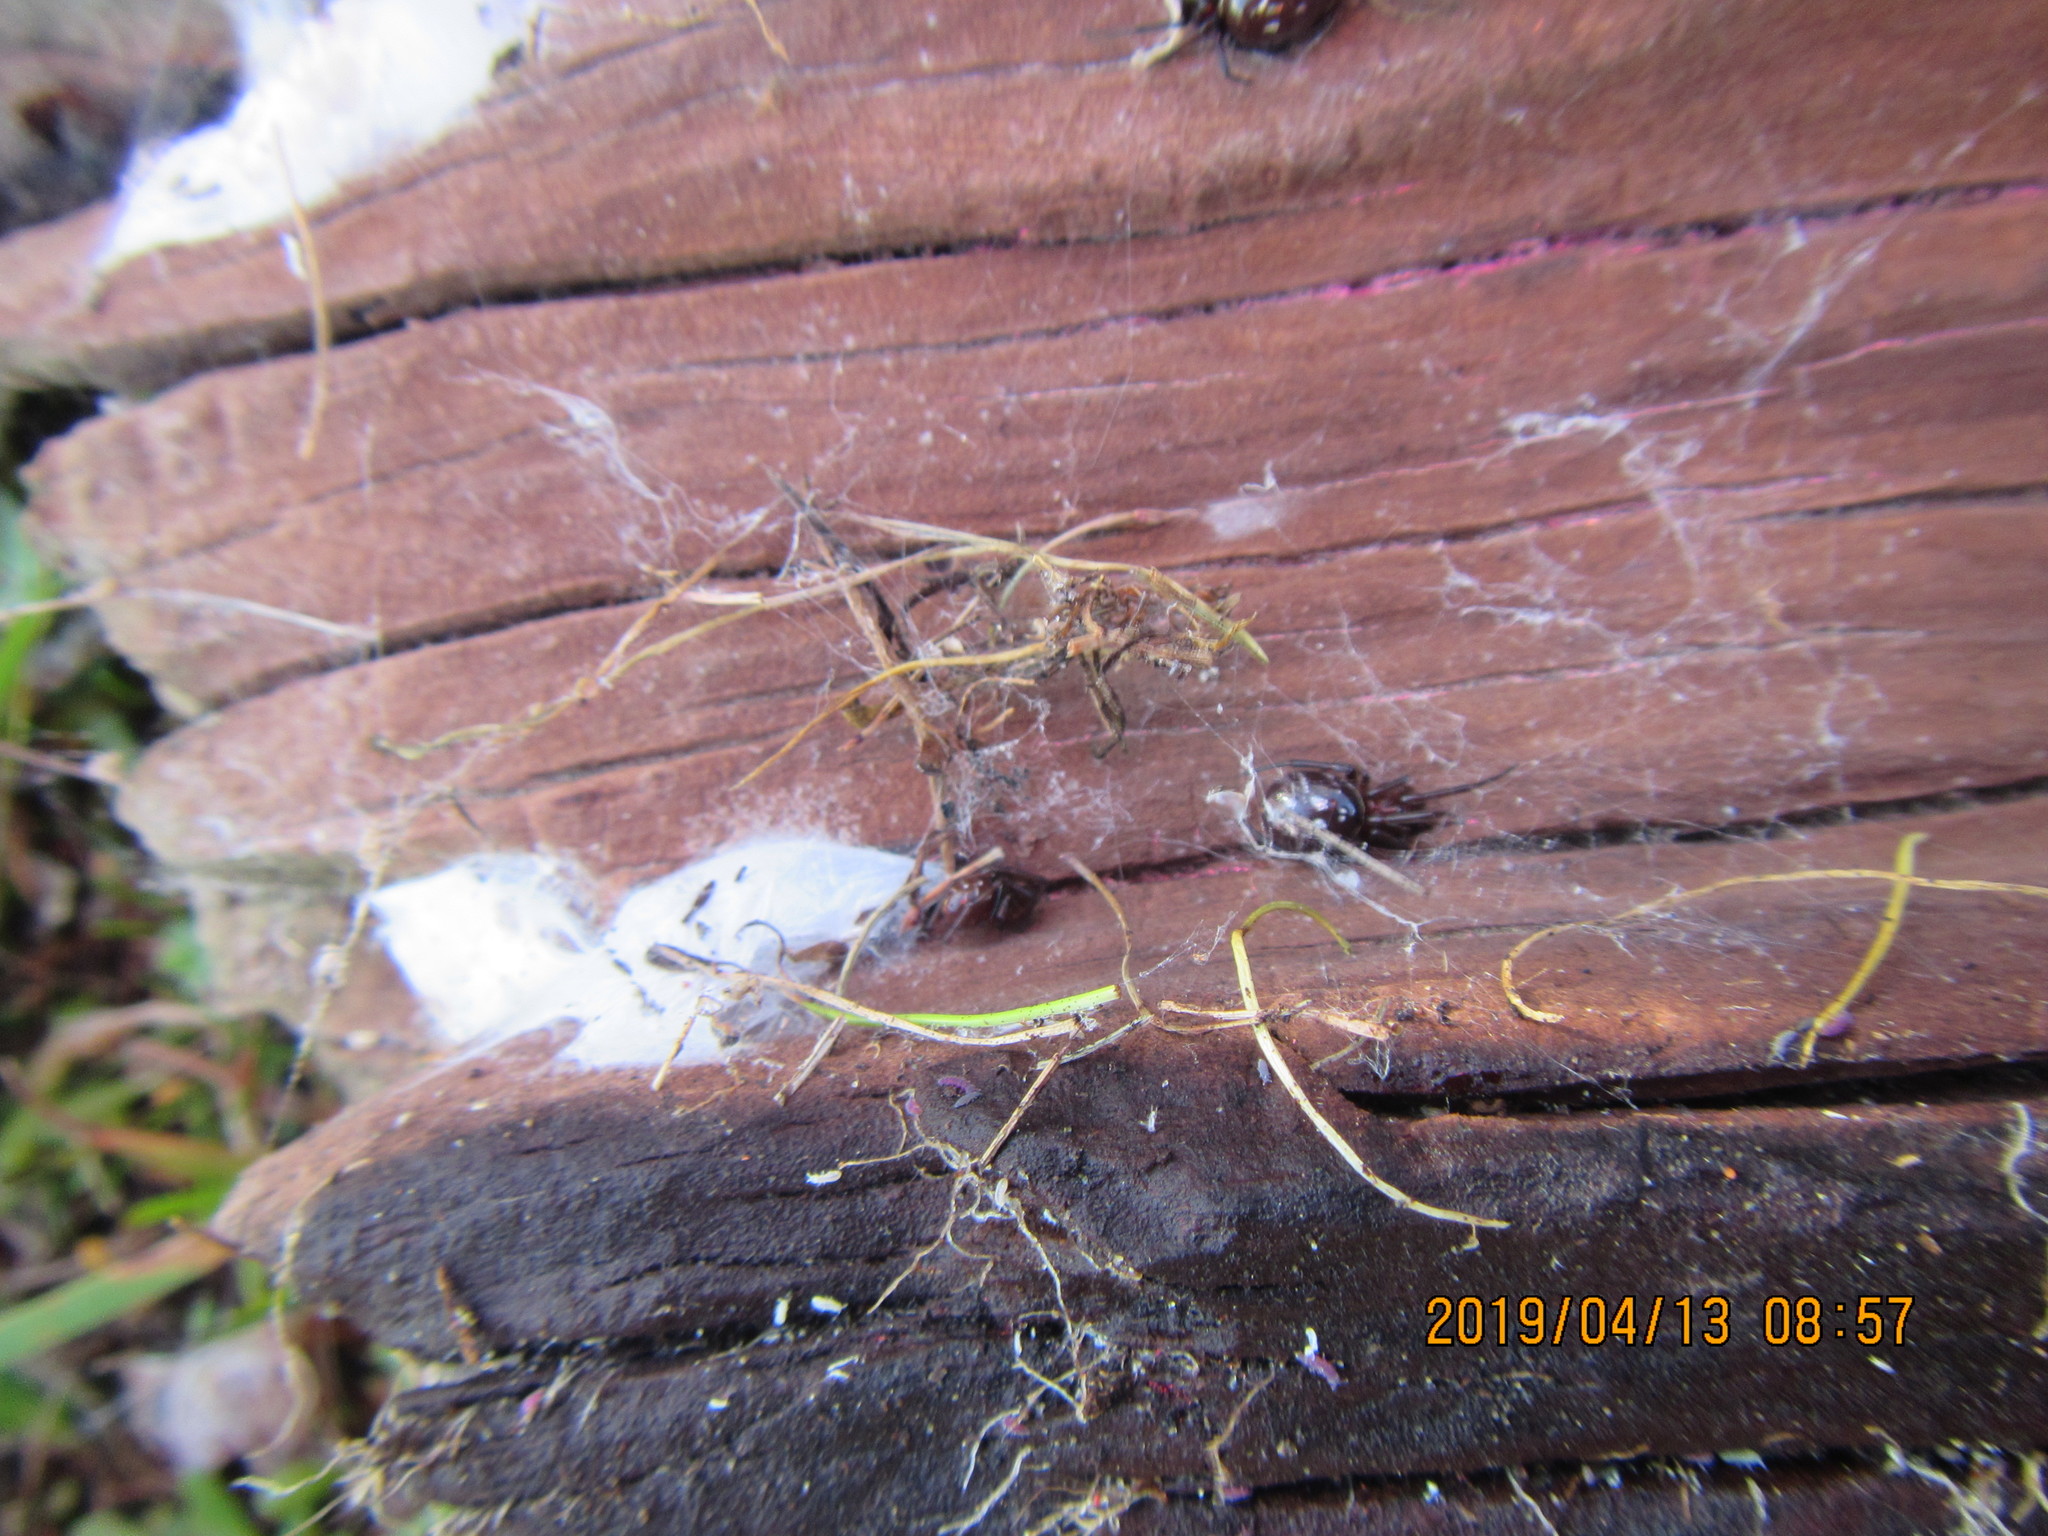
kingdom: Animalia
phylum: Arthropoda
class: Arachnida
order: Araneae
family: Theridiidae
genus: Steatoda
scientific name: Steatoda capensis
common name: Cobweb weaver
